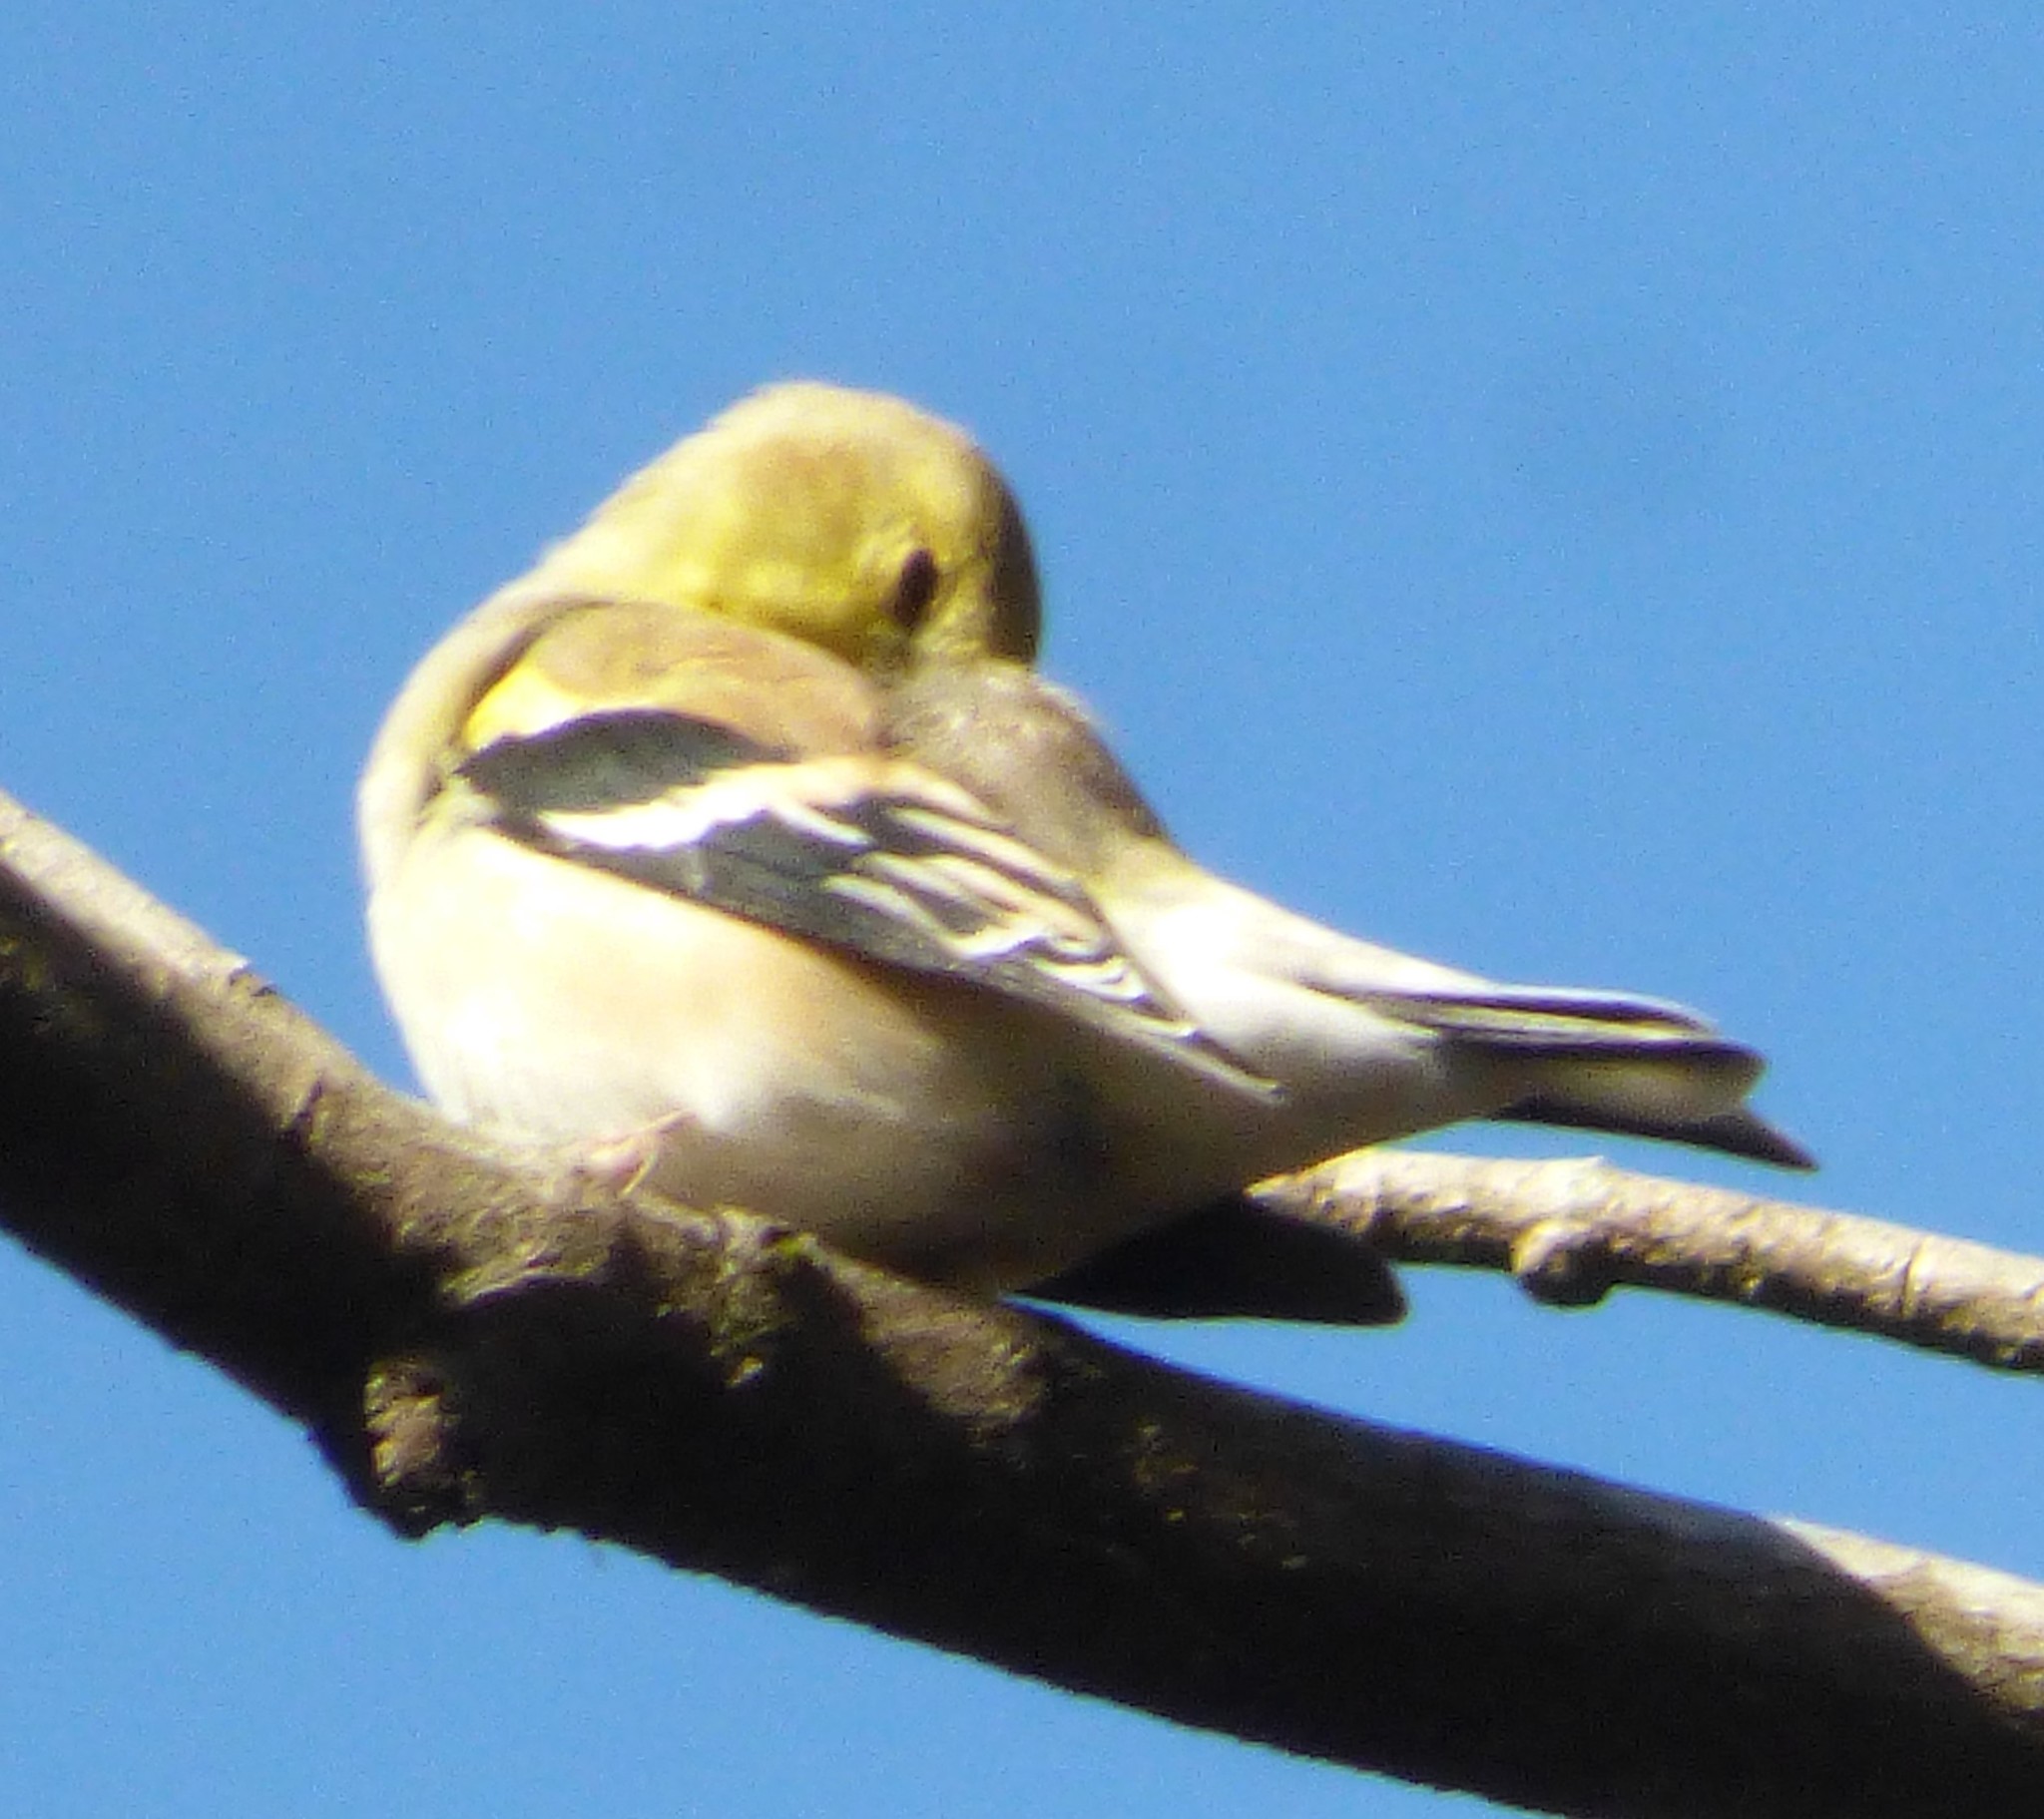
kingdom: Animalia
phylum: Chordata
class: Aves
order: Passeriformes
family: Fringillidae
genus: Spinus
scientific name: Spinus tristis
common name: American goldfinch
